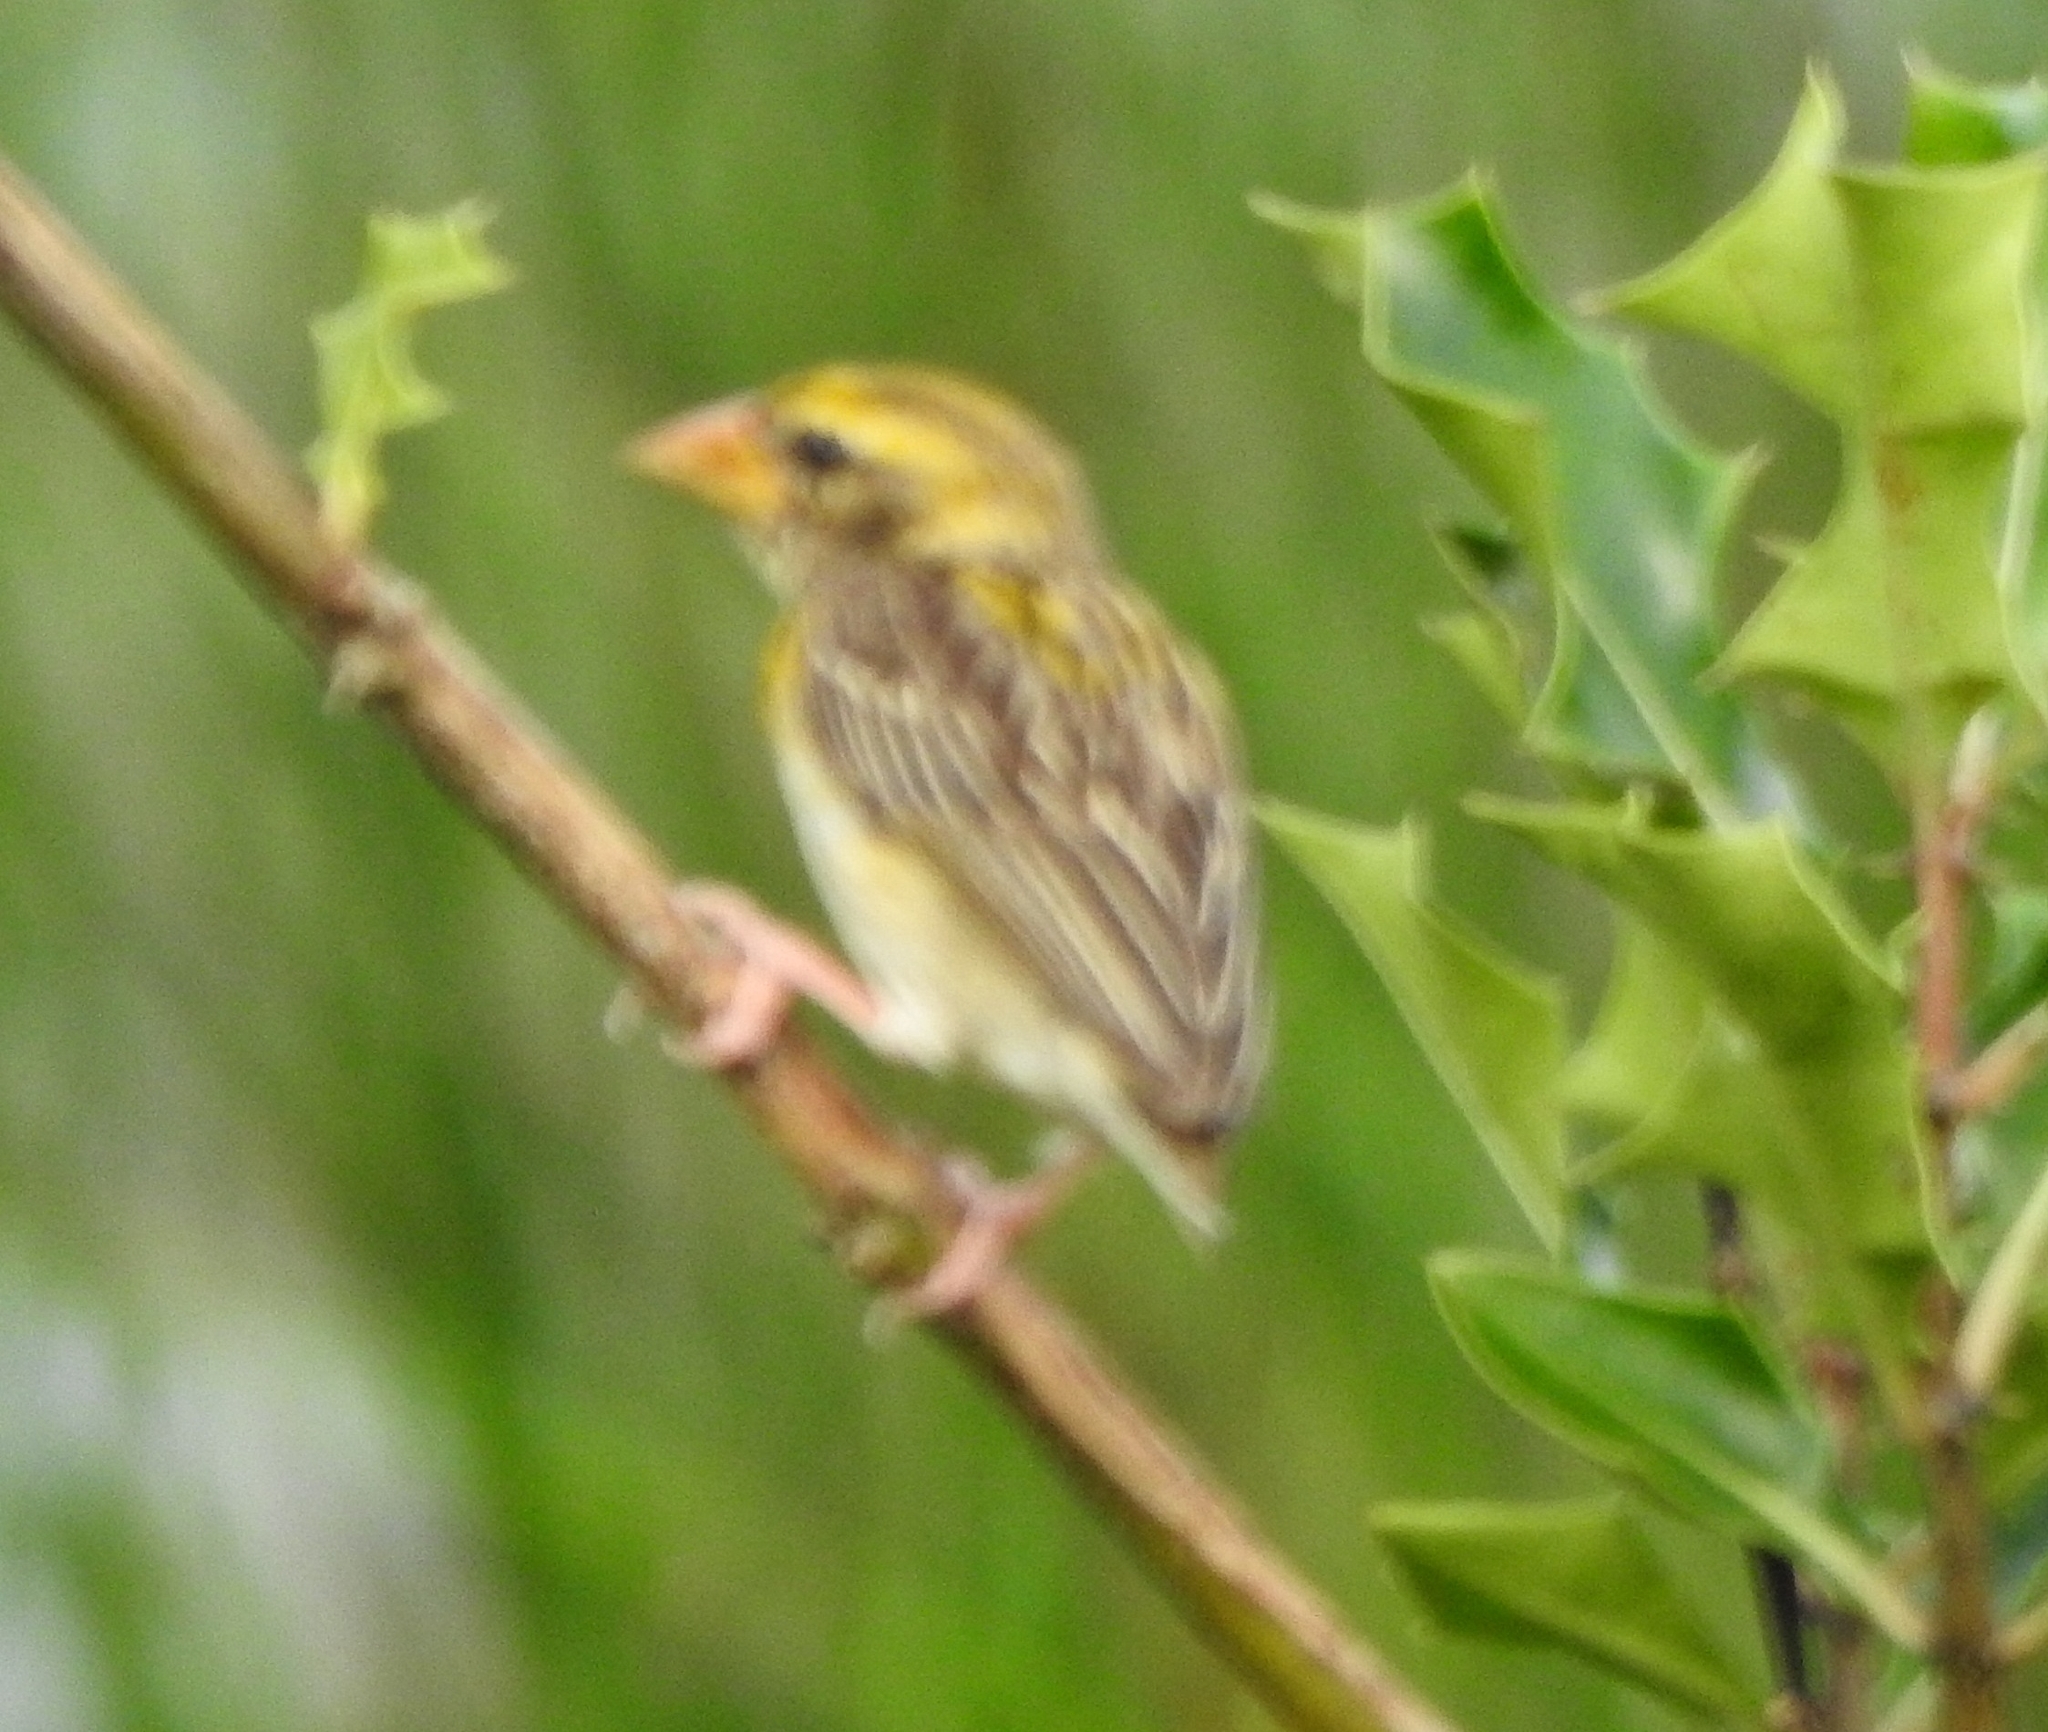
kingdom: Animalia
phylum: Chordata
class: Aves
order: Passeriformes
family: Ploceidae
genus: Ploceus
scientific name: Ploceus philippinus
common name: Baya weaver
